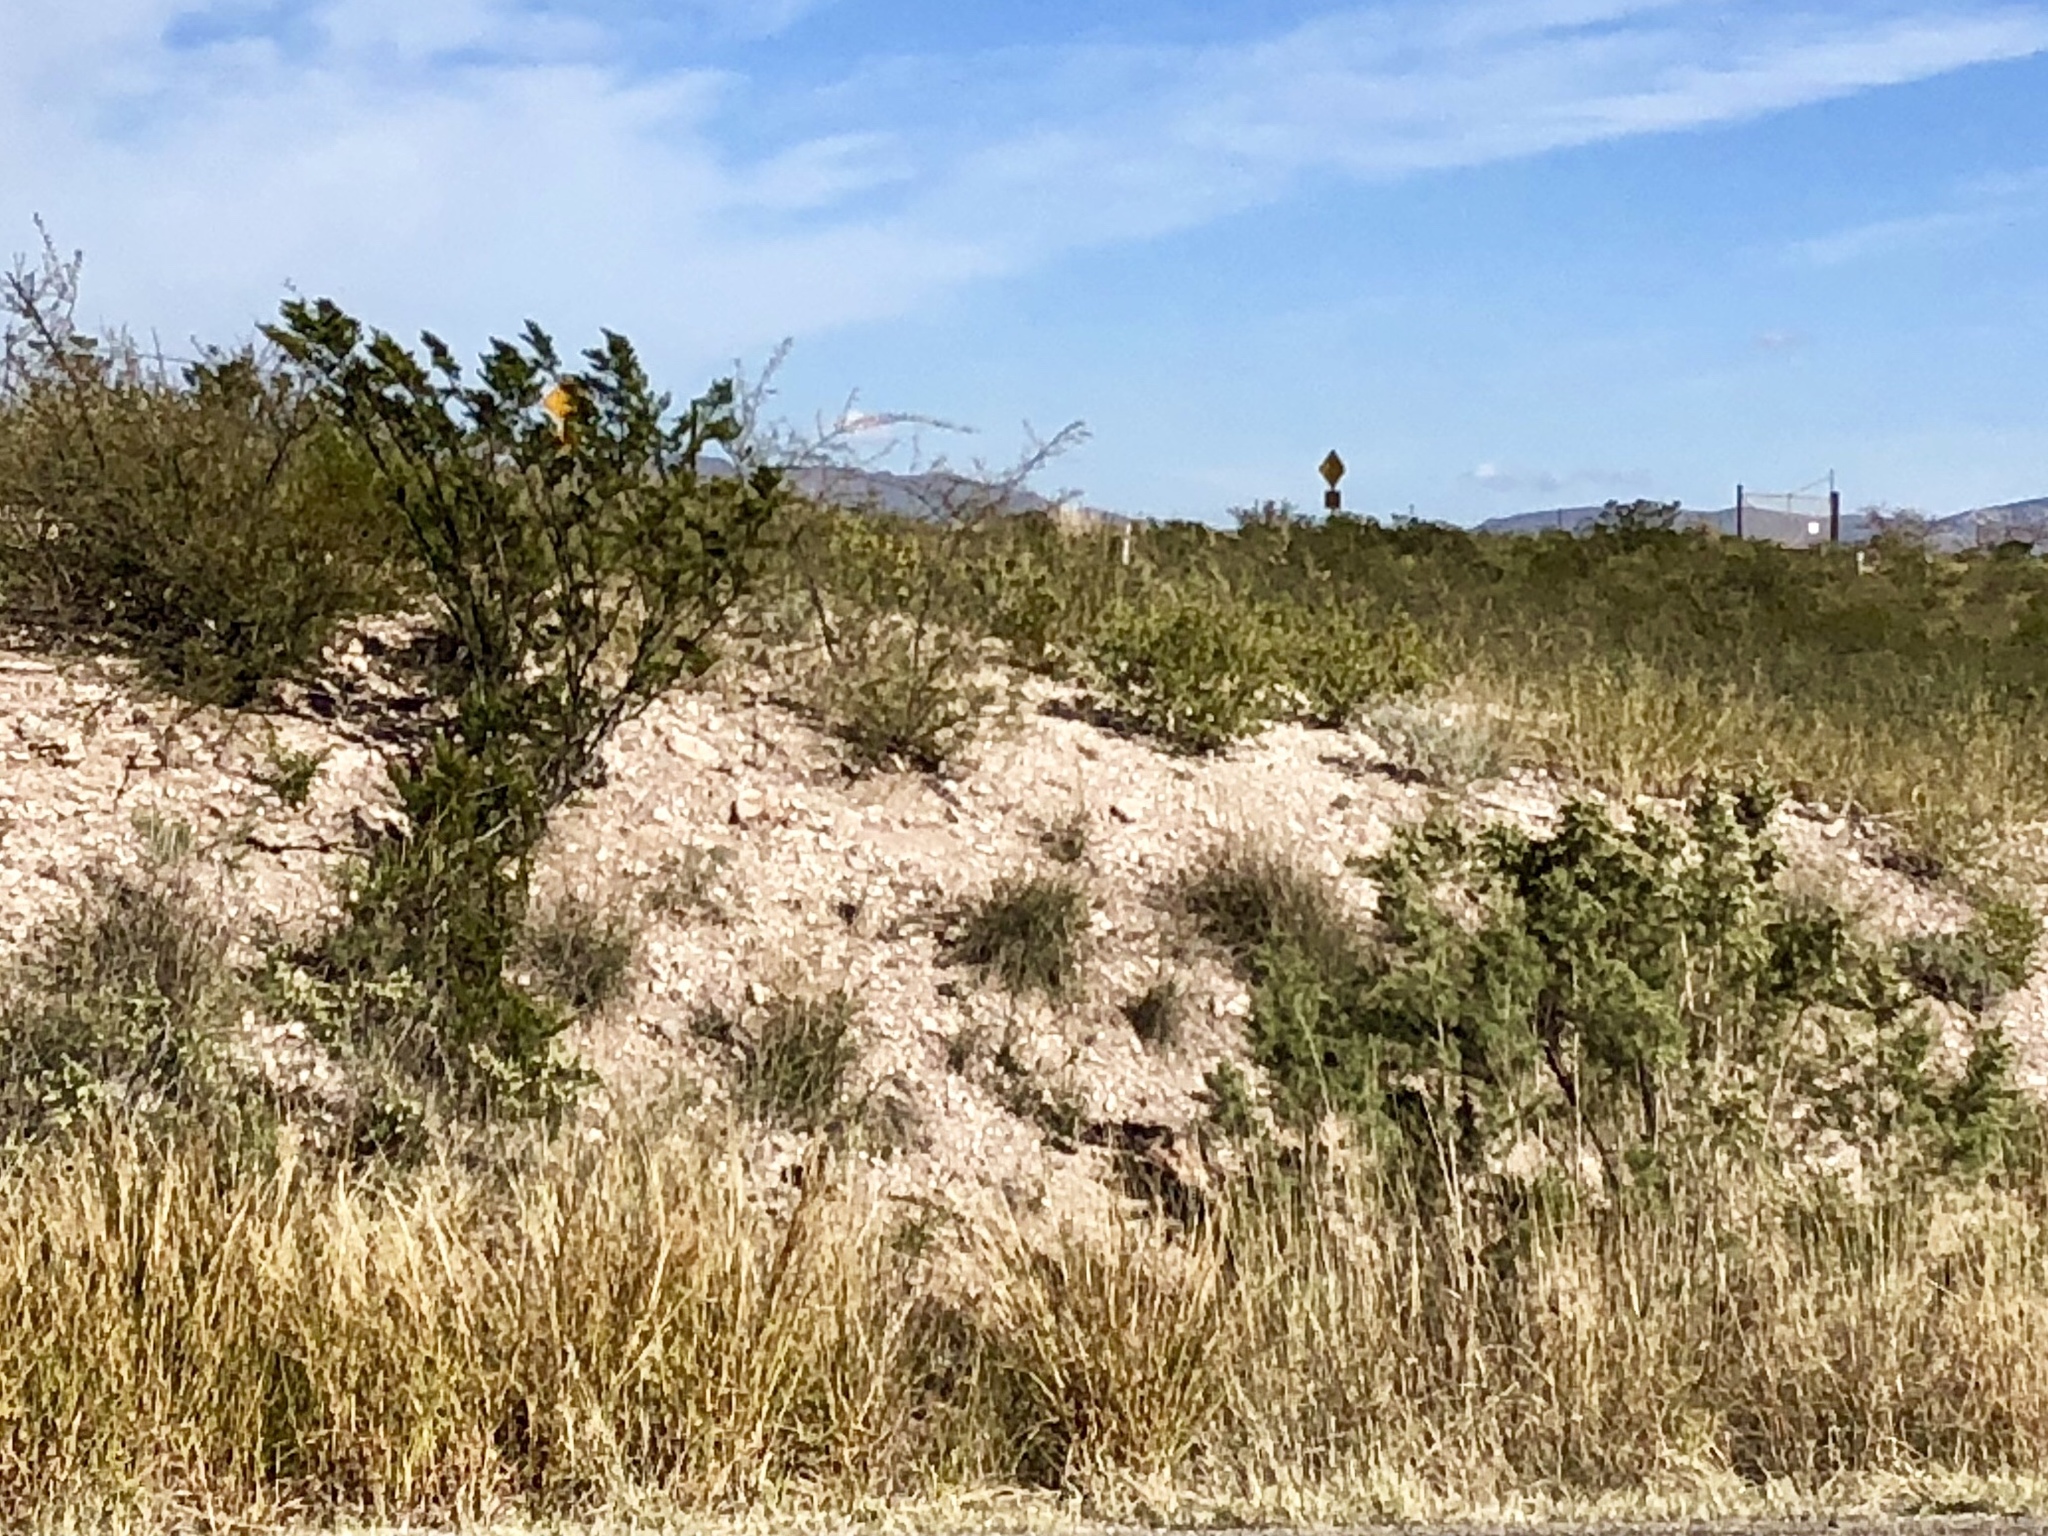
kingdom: Plantae
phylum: Tracheophyta
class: Magnoliopsida
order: Zygophyllales
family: Zygophyllaceae
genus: Larrea
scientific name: Larrea tridentata
